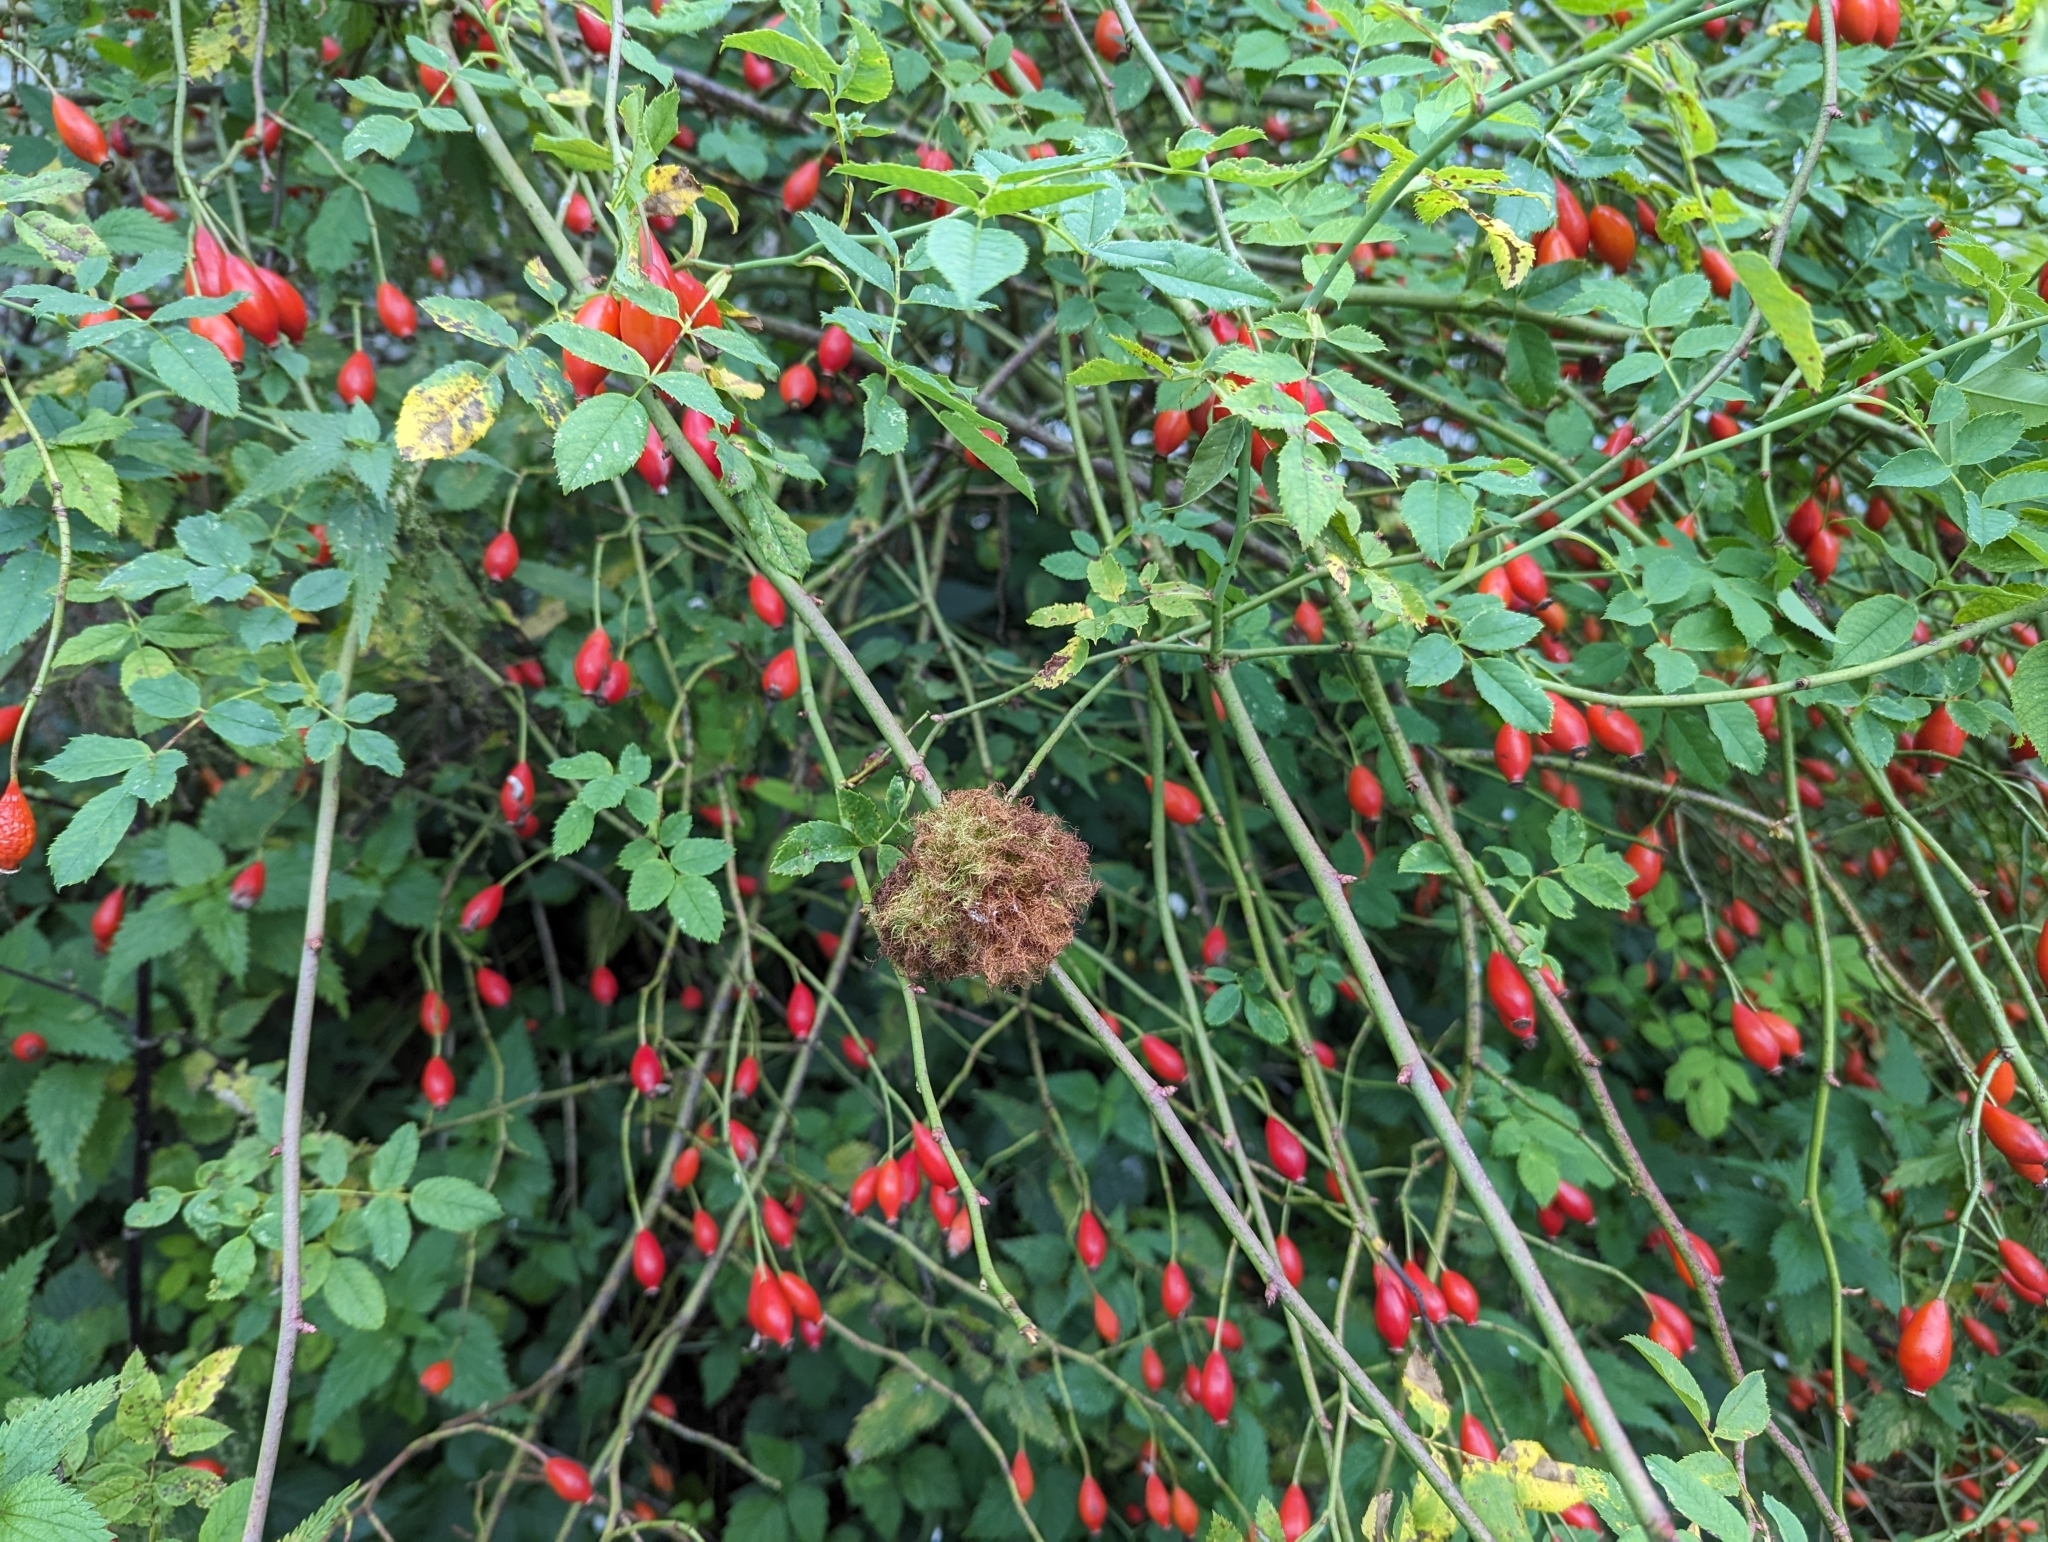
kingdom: Animalia
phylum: Arthropoda
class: Insecta
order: Hymenoptera
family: Cynipidae
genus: Diplolepis
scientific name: Diplolepis rosae
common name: Bedeguar gall
